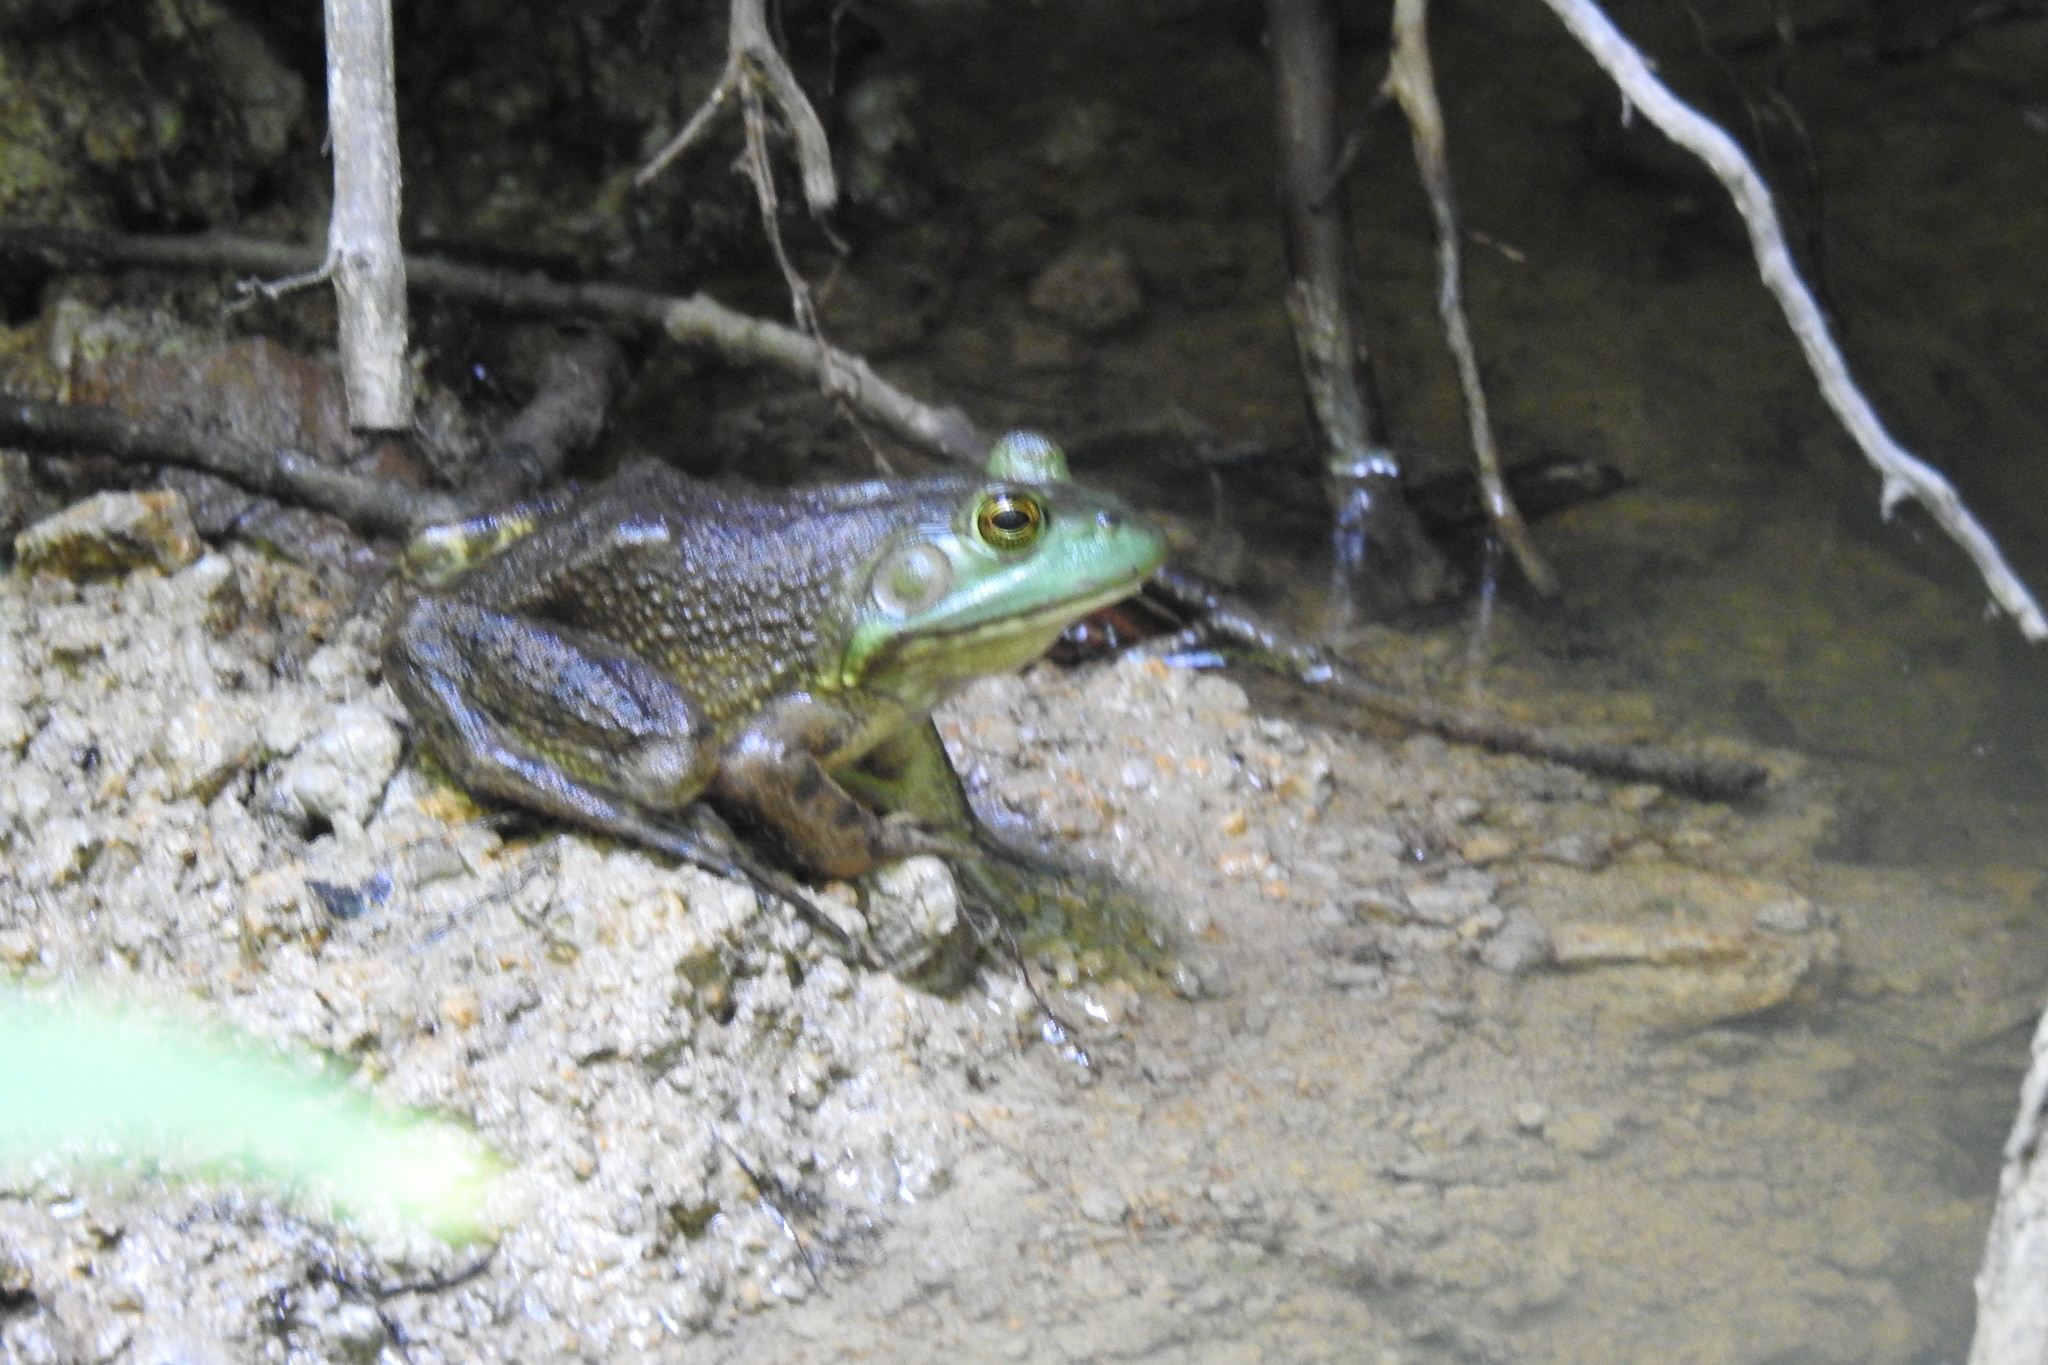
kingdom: Animalia
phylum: Chordata
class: Amphibia
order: Anura
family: Ranidae
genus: Lithobates
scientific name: Lithobates catesbeianus
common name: American bullfrog
